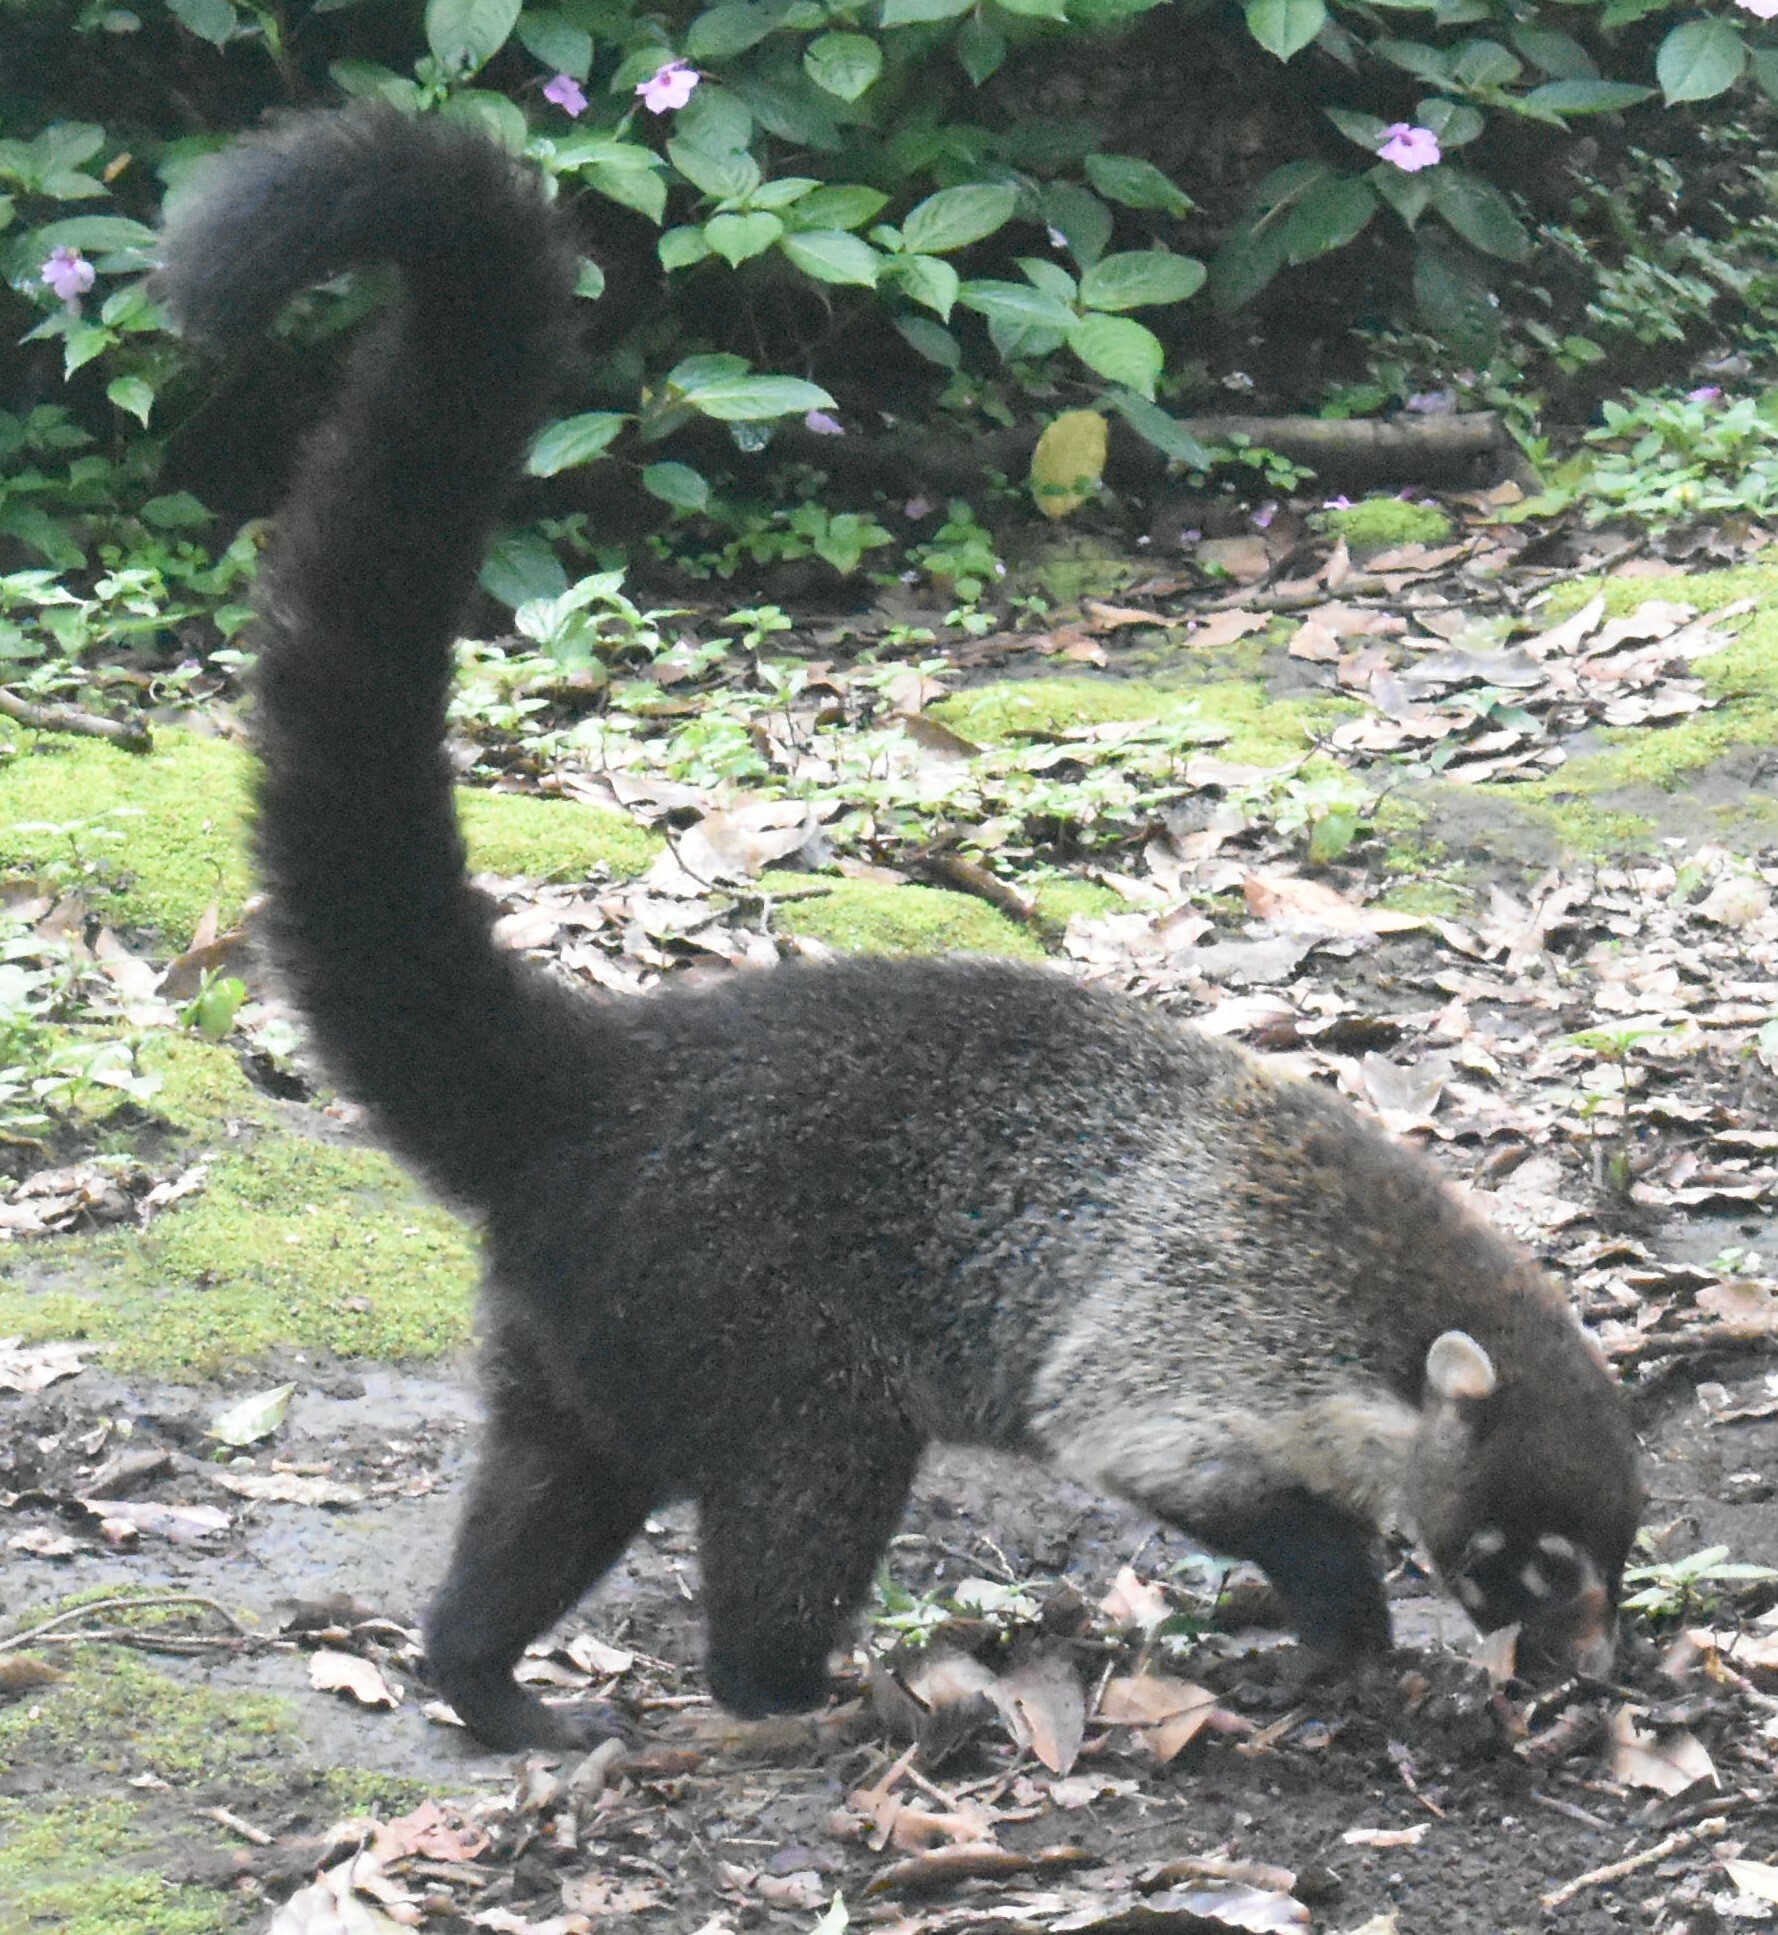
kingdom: Animalia
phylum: Chordata
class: Mammalia
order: Carnivora
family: Procyonidae
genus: Nasua
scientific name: Nasua narica
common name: White-nosed coati
